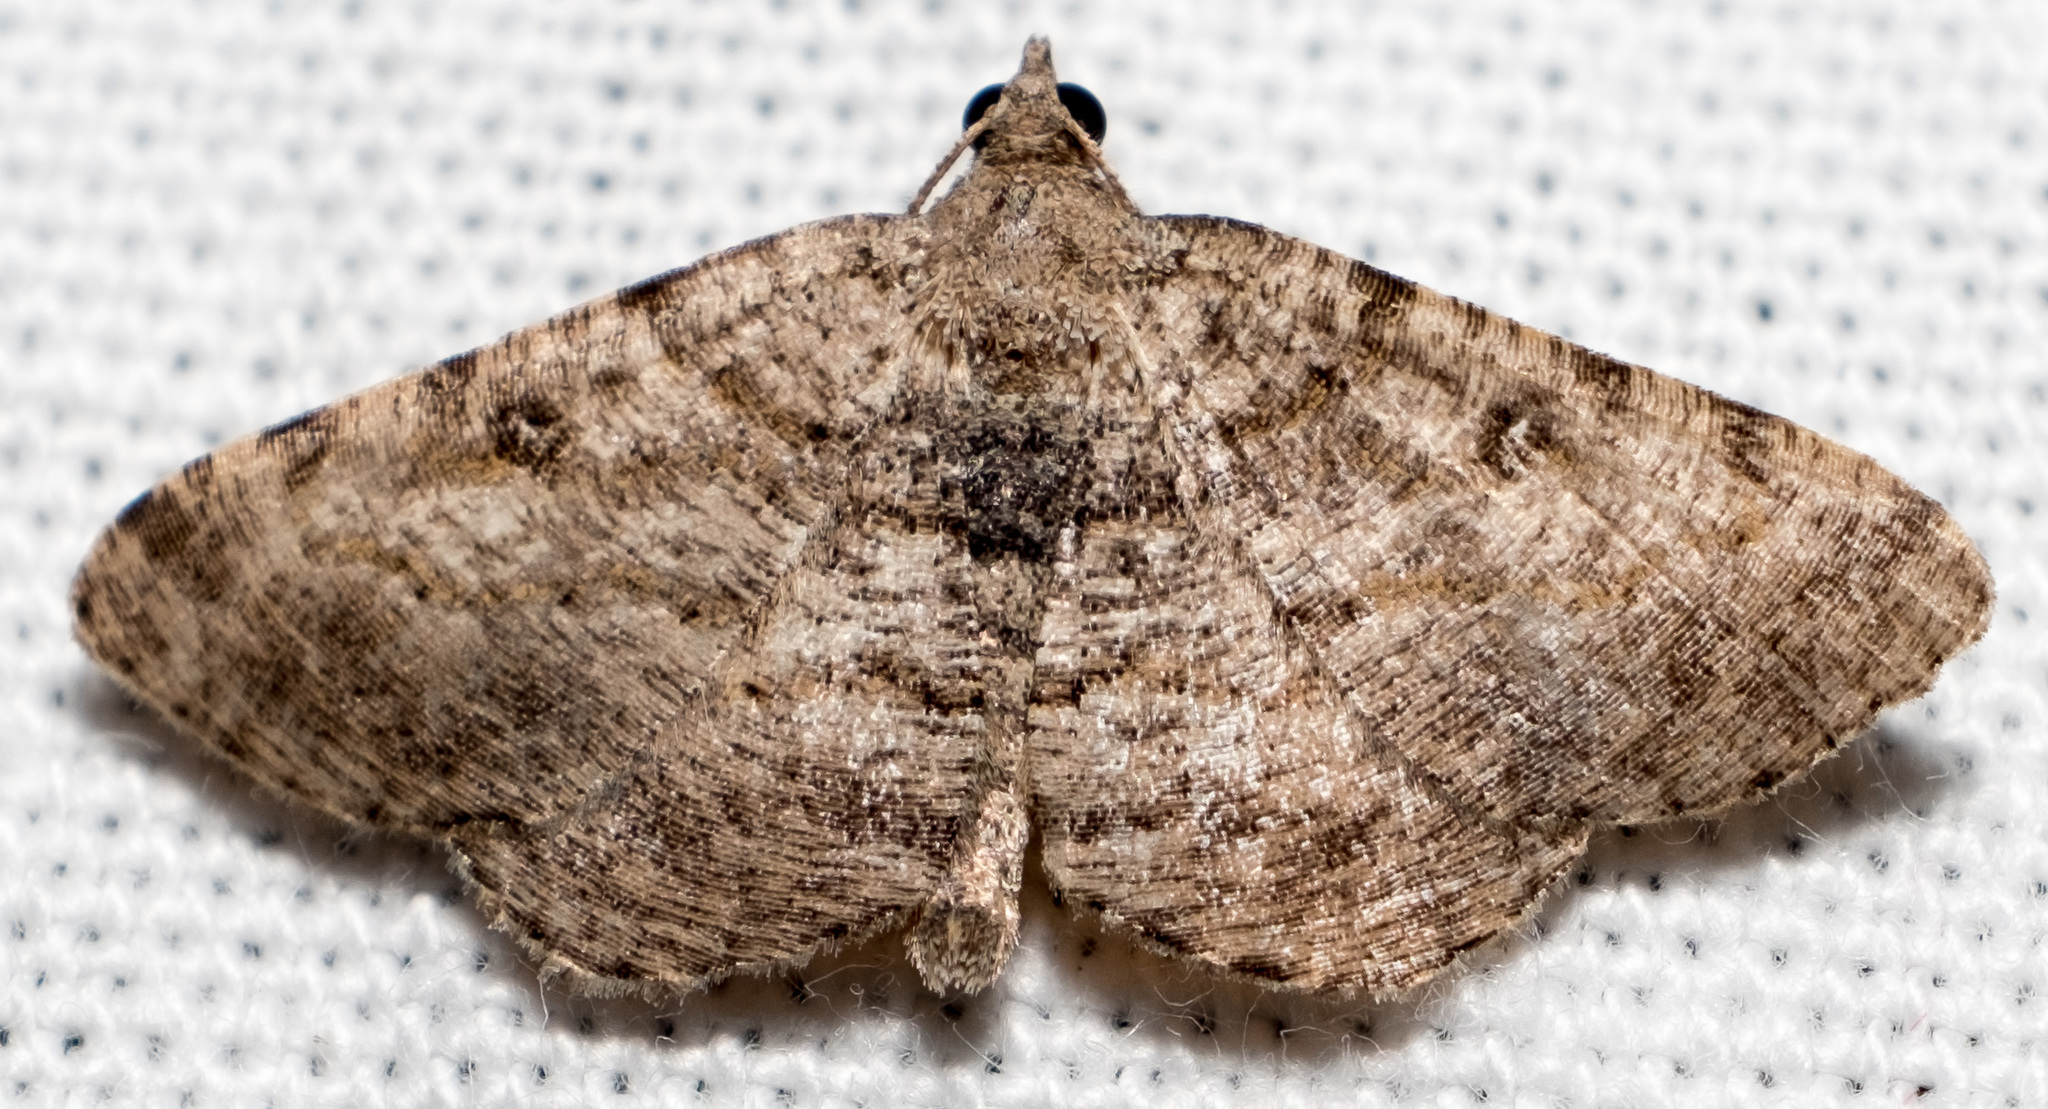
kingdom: Animalia
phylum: Arthropoda
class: Insecta
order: Lepidoptera
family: Geometridae
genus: Digrammia
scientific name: Digrammia gnophosaria
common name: Hollow-spotted angle
